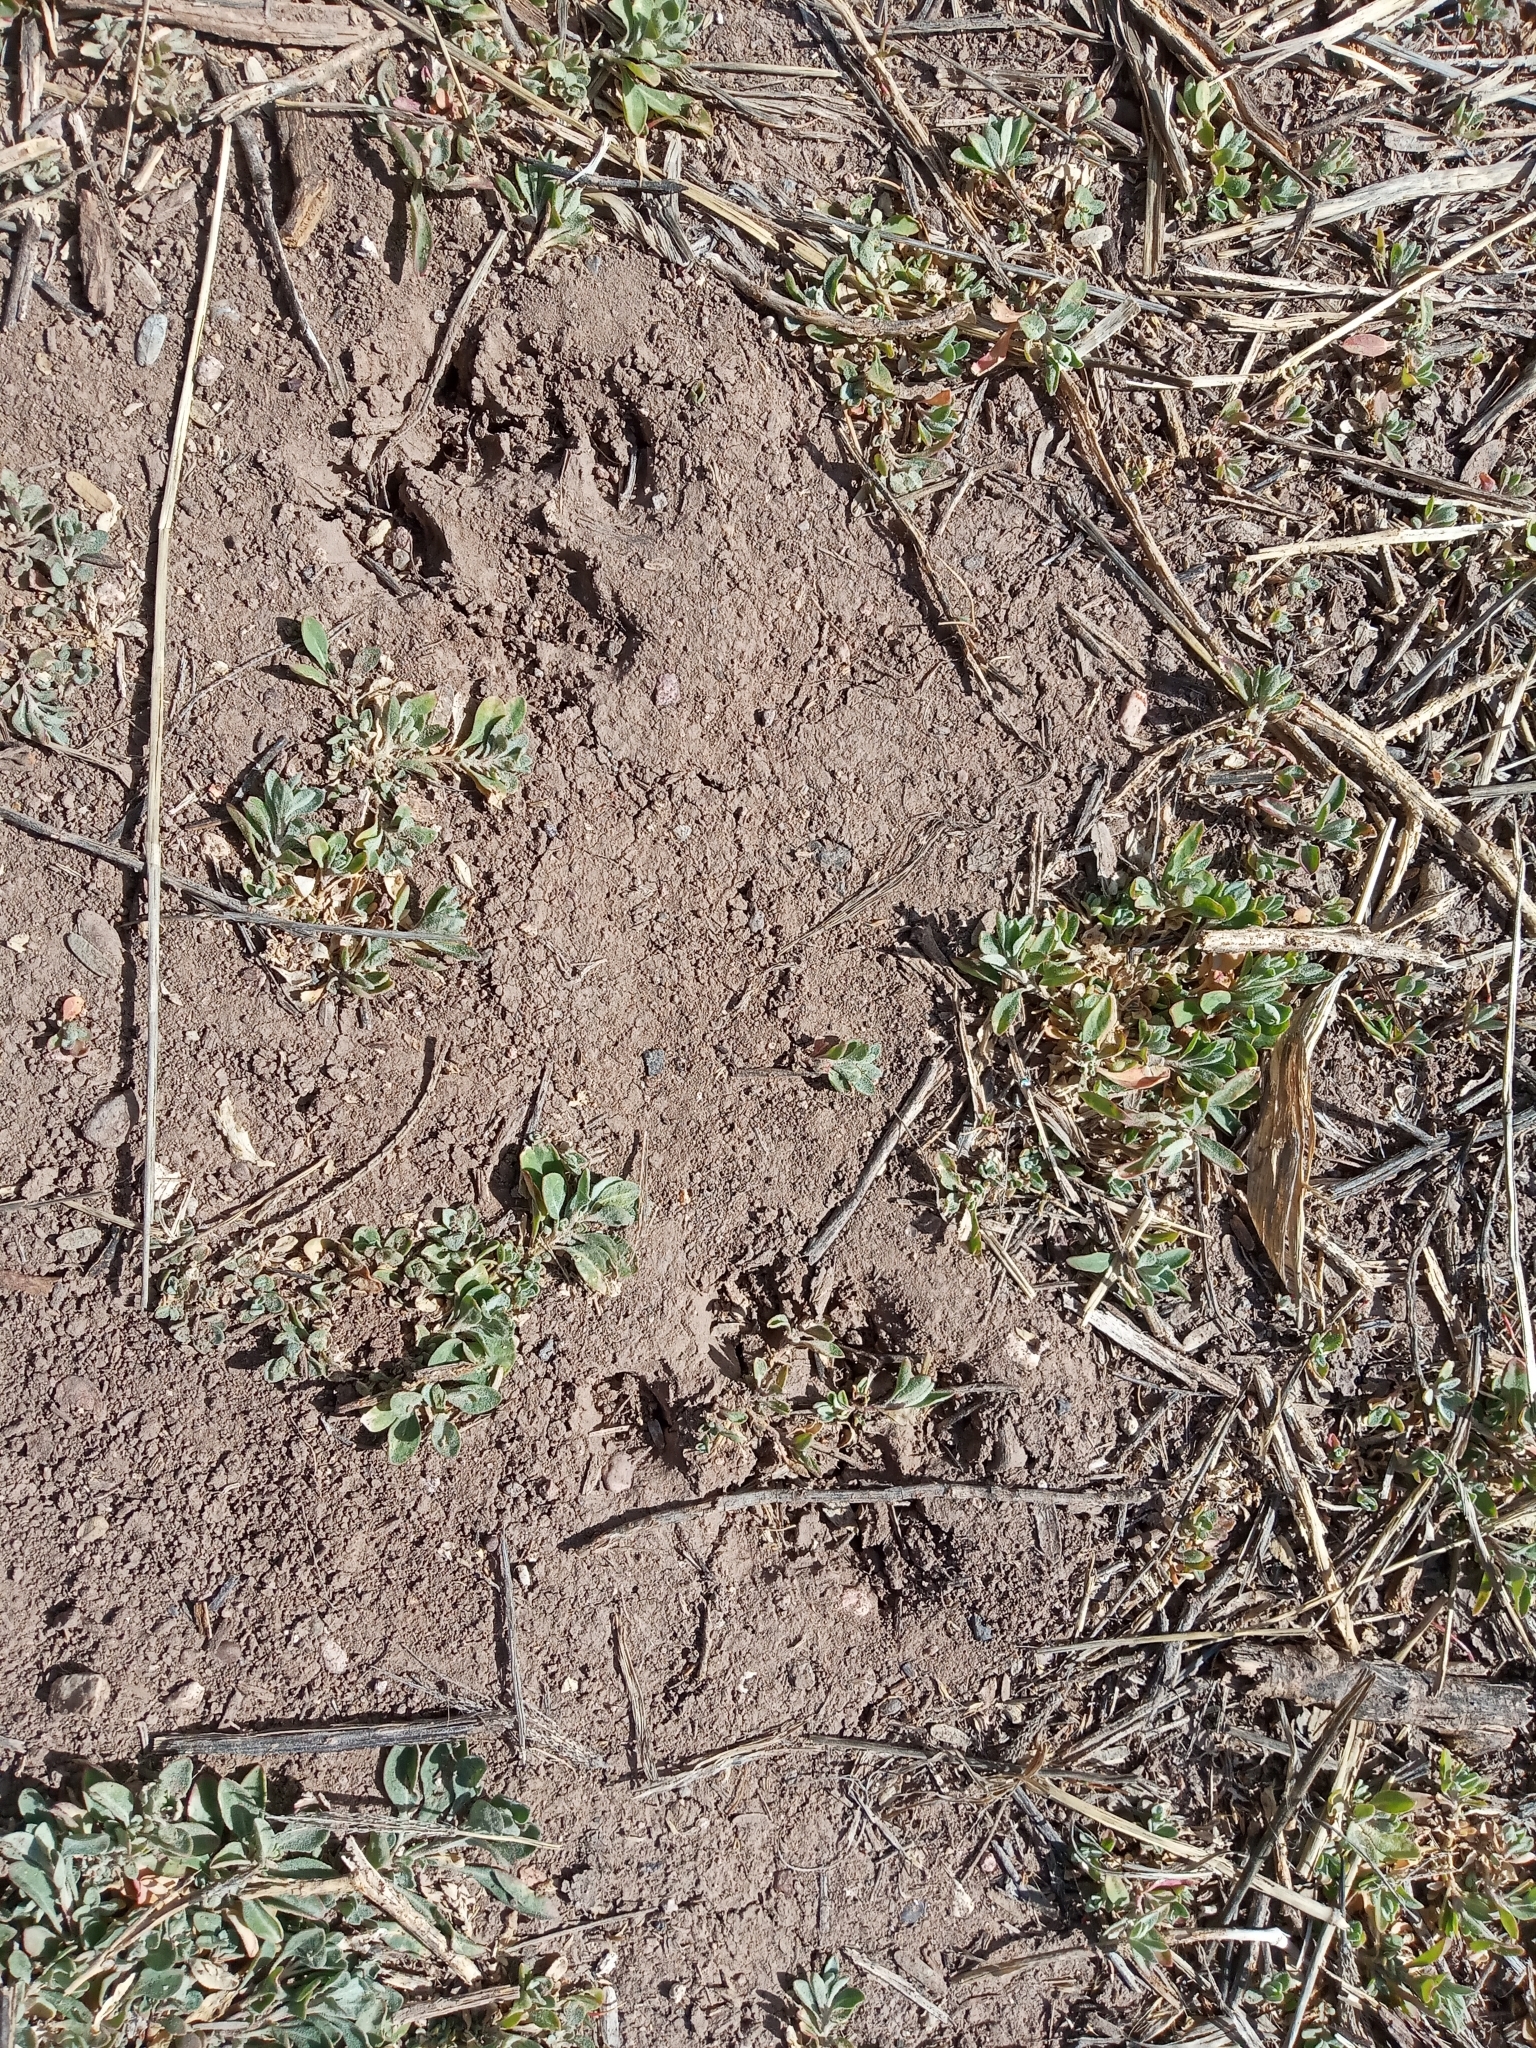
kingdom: Animalia
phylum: Chordata
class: Mammalia
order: Carnivora
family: Felidae
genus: Lynx
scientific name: Lynx rufus
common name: Bobcat
